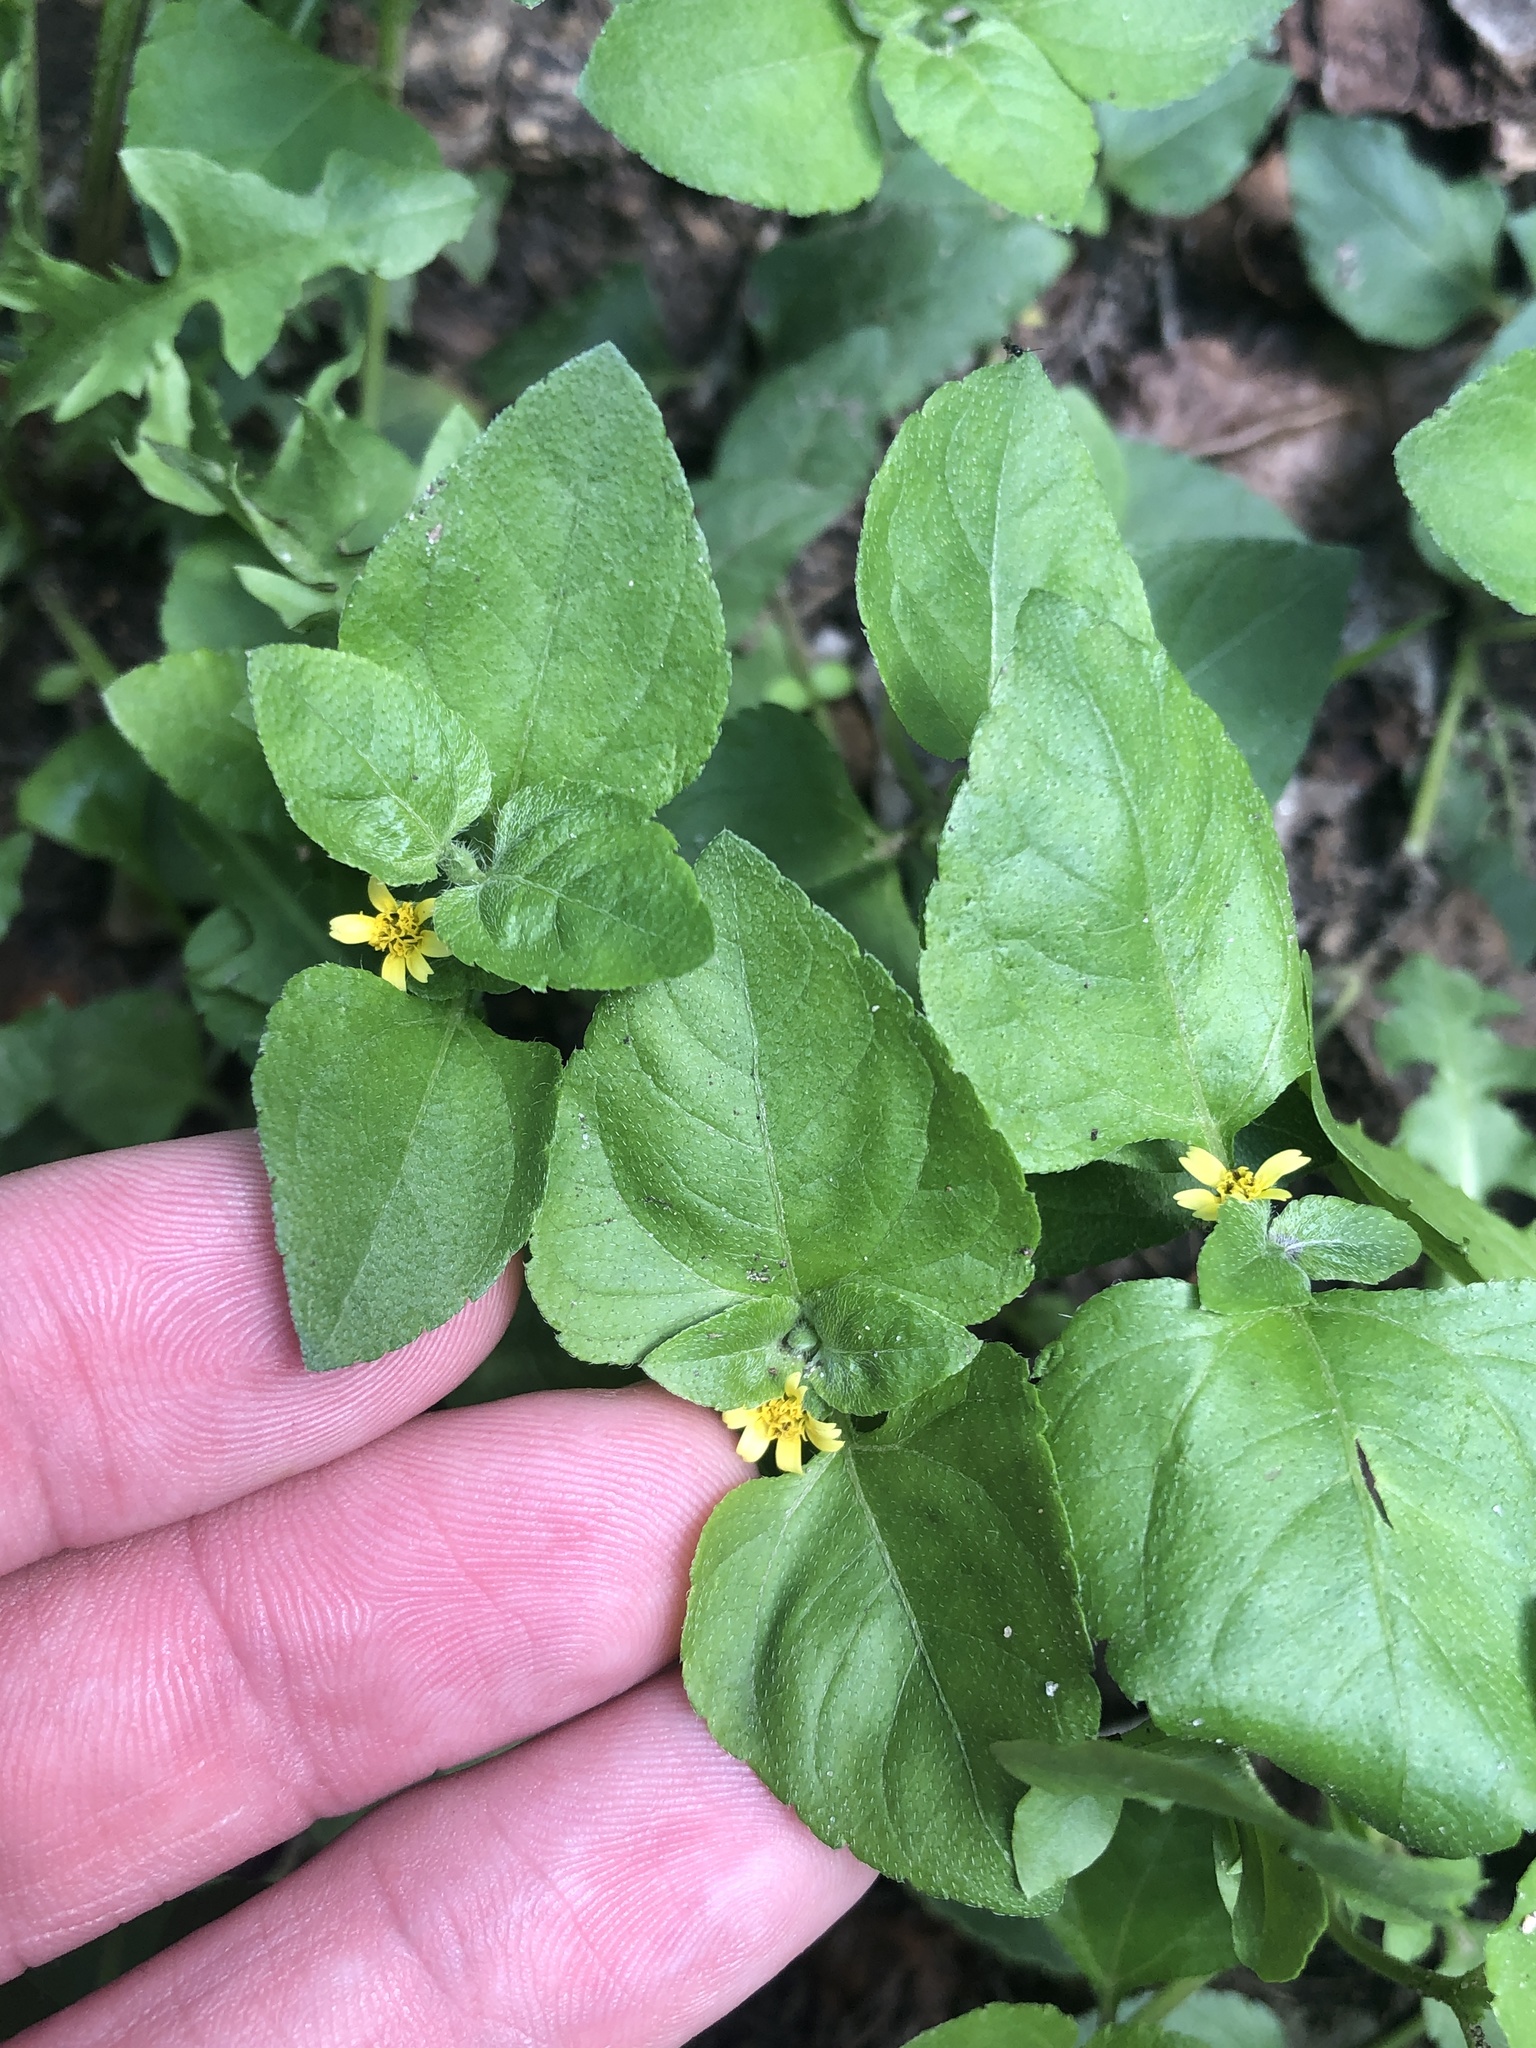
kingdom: Plantae
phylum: Tracheophyta
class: Magnoliopsida
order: Asterales
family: Asteraceae
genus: Calyptocarpus
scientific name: Calyptocarpus vialis
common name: Straggler daisy
